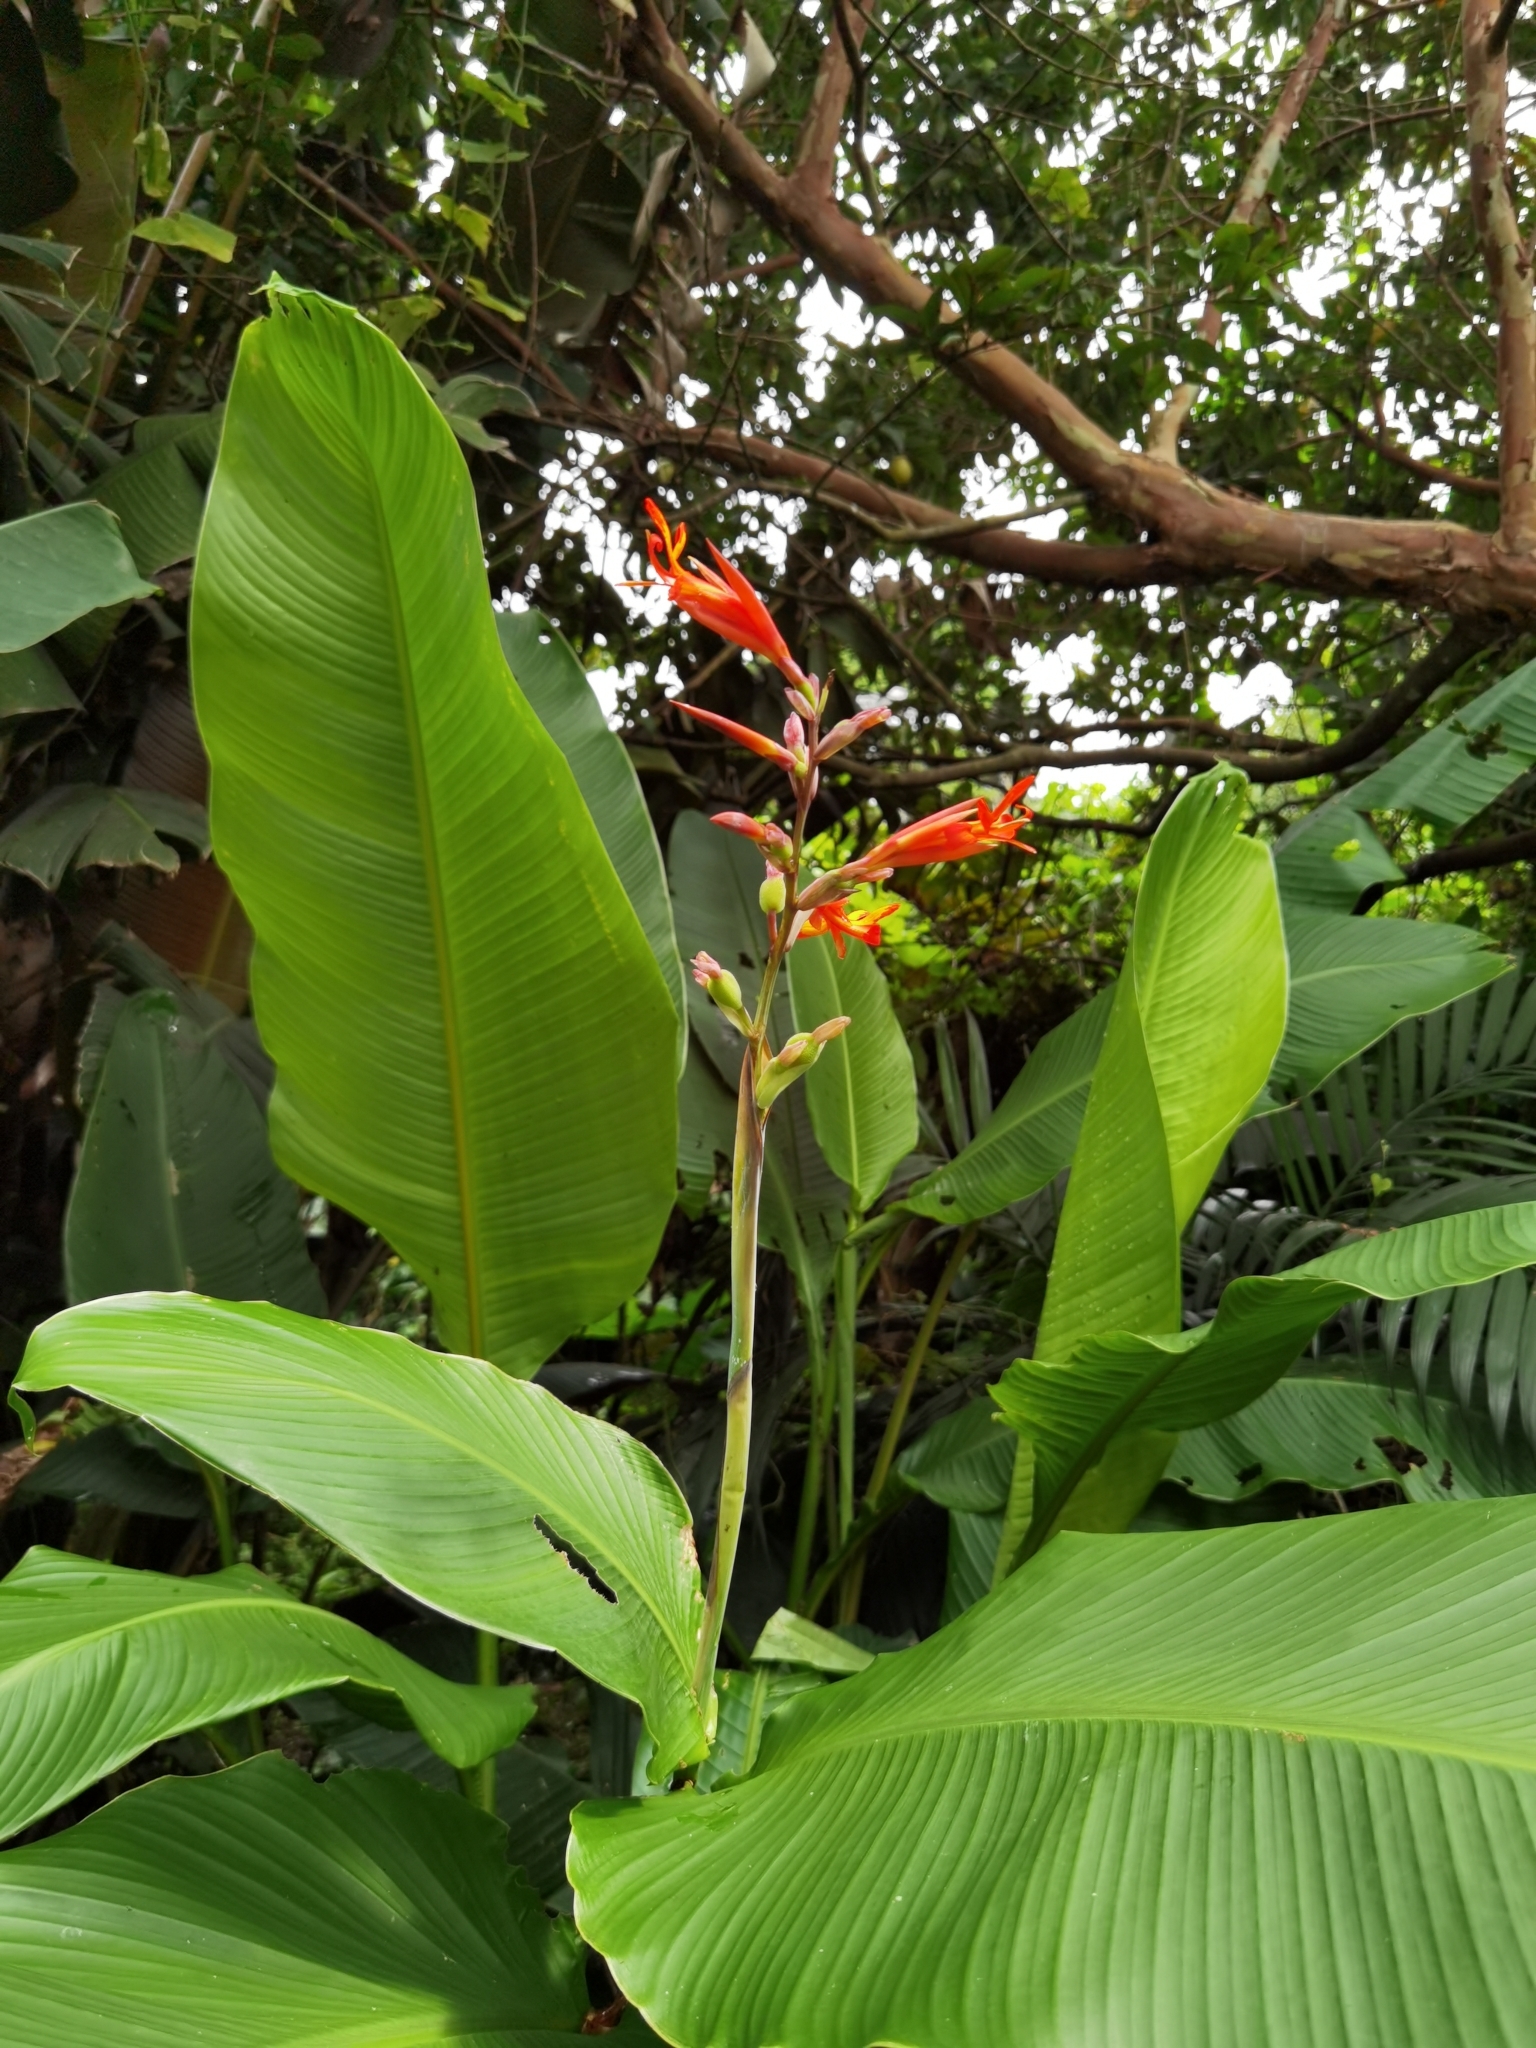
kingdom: Plantae
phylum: Tracheophyta
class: Liliopsida
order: Zingiberales
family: Cannaceae
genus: Canna
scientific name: Canna tuerckheimii
